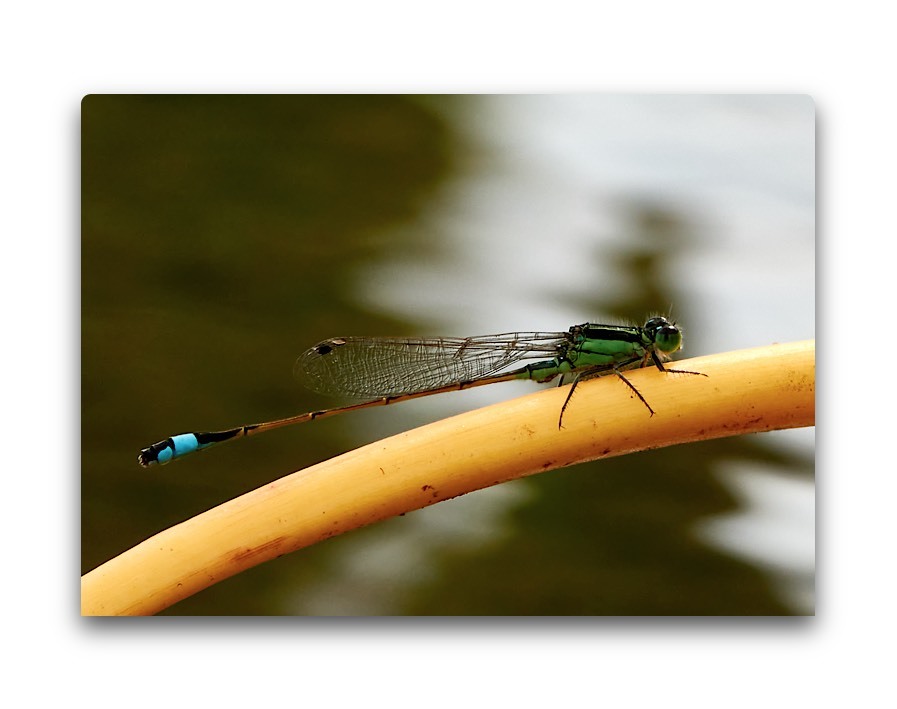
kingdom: Animalia
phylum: Arthropoda
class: Insecta
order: Odonata
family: Coenagrionidae
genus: Ischnura
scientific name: Ischnura ramburii
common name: Rambur's forktail
